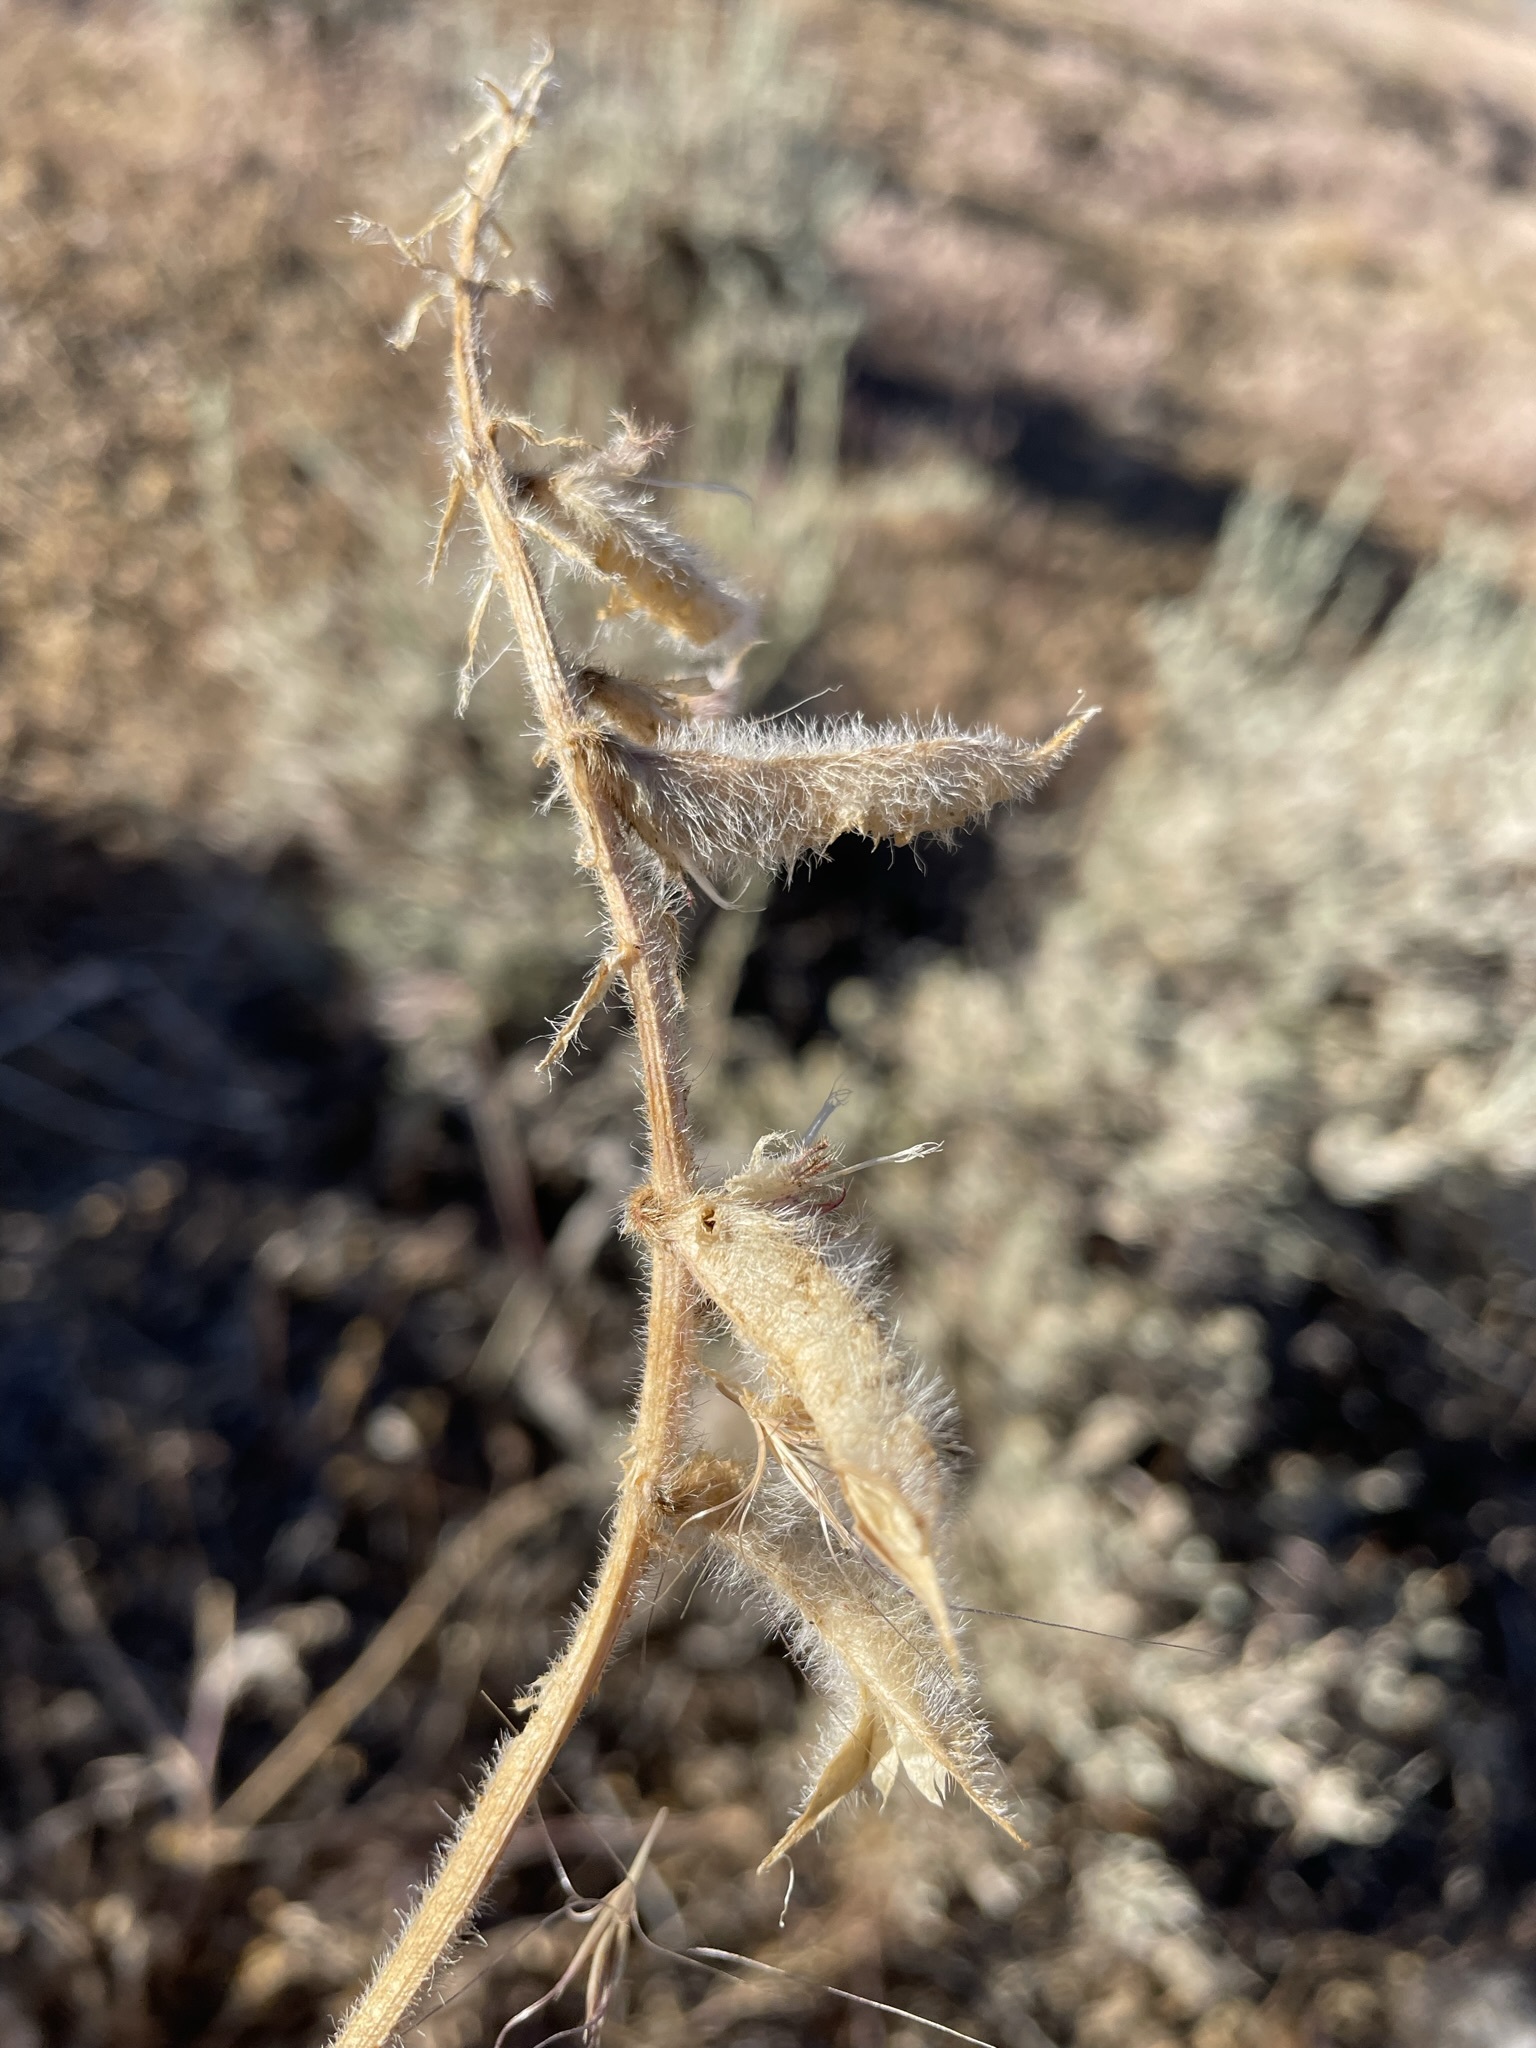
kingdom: Plantae
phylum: Tracheophyta
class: Magnoliopsida
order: Fabales
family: Fabaceae
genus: Astragalus
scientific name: Astragalus malacus
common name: Shaggy milk-vetch
